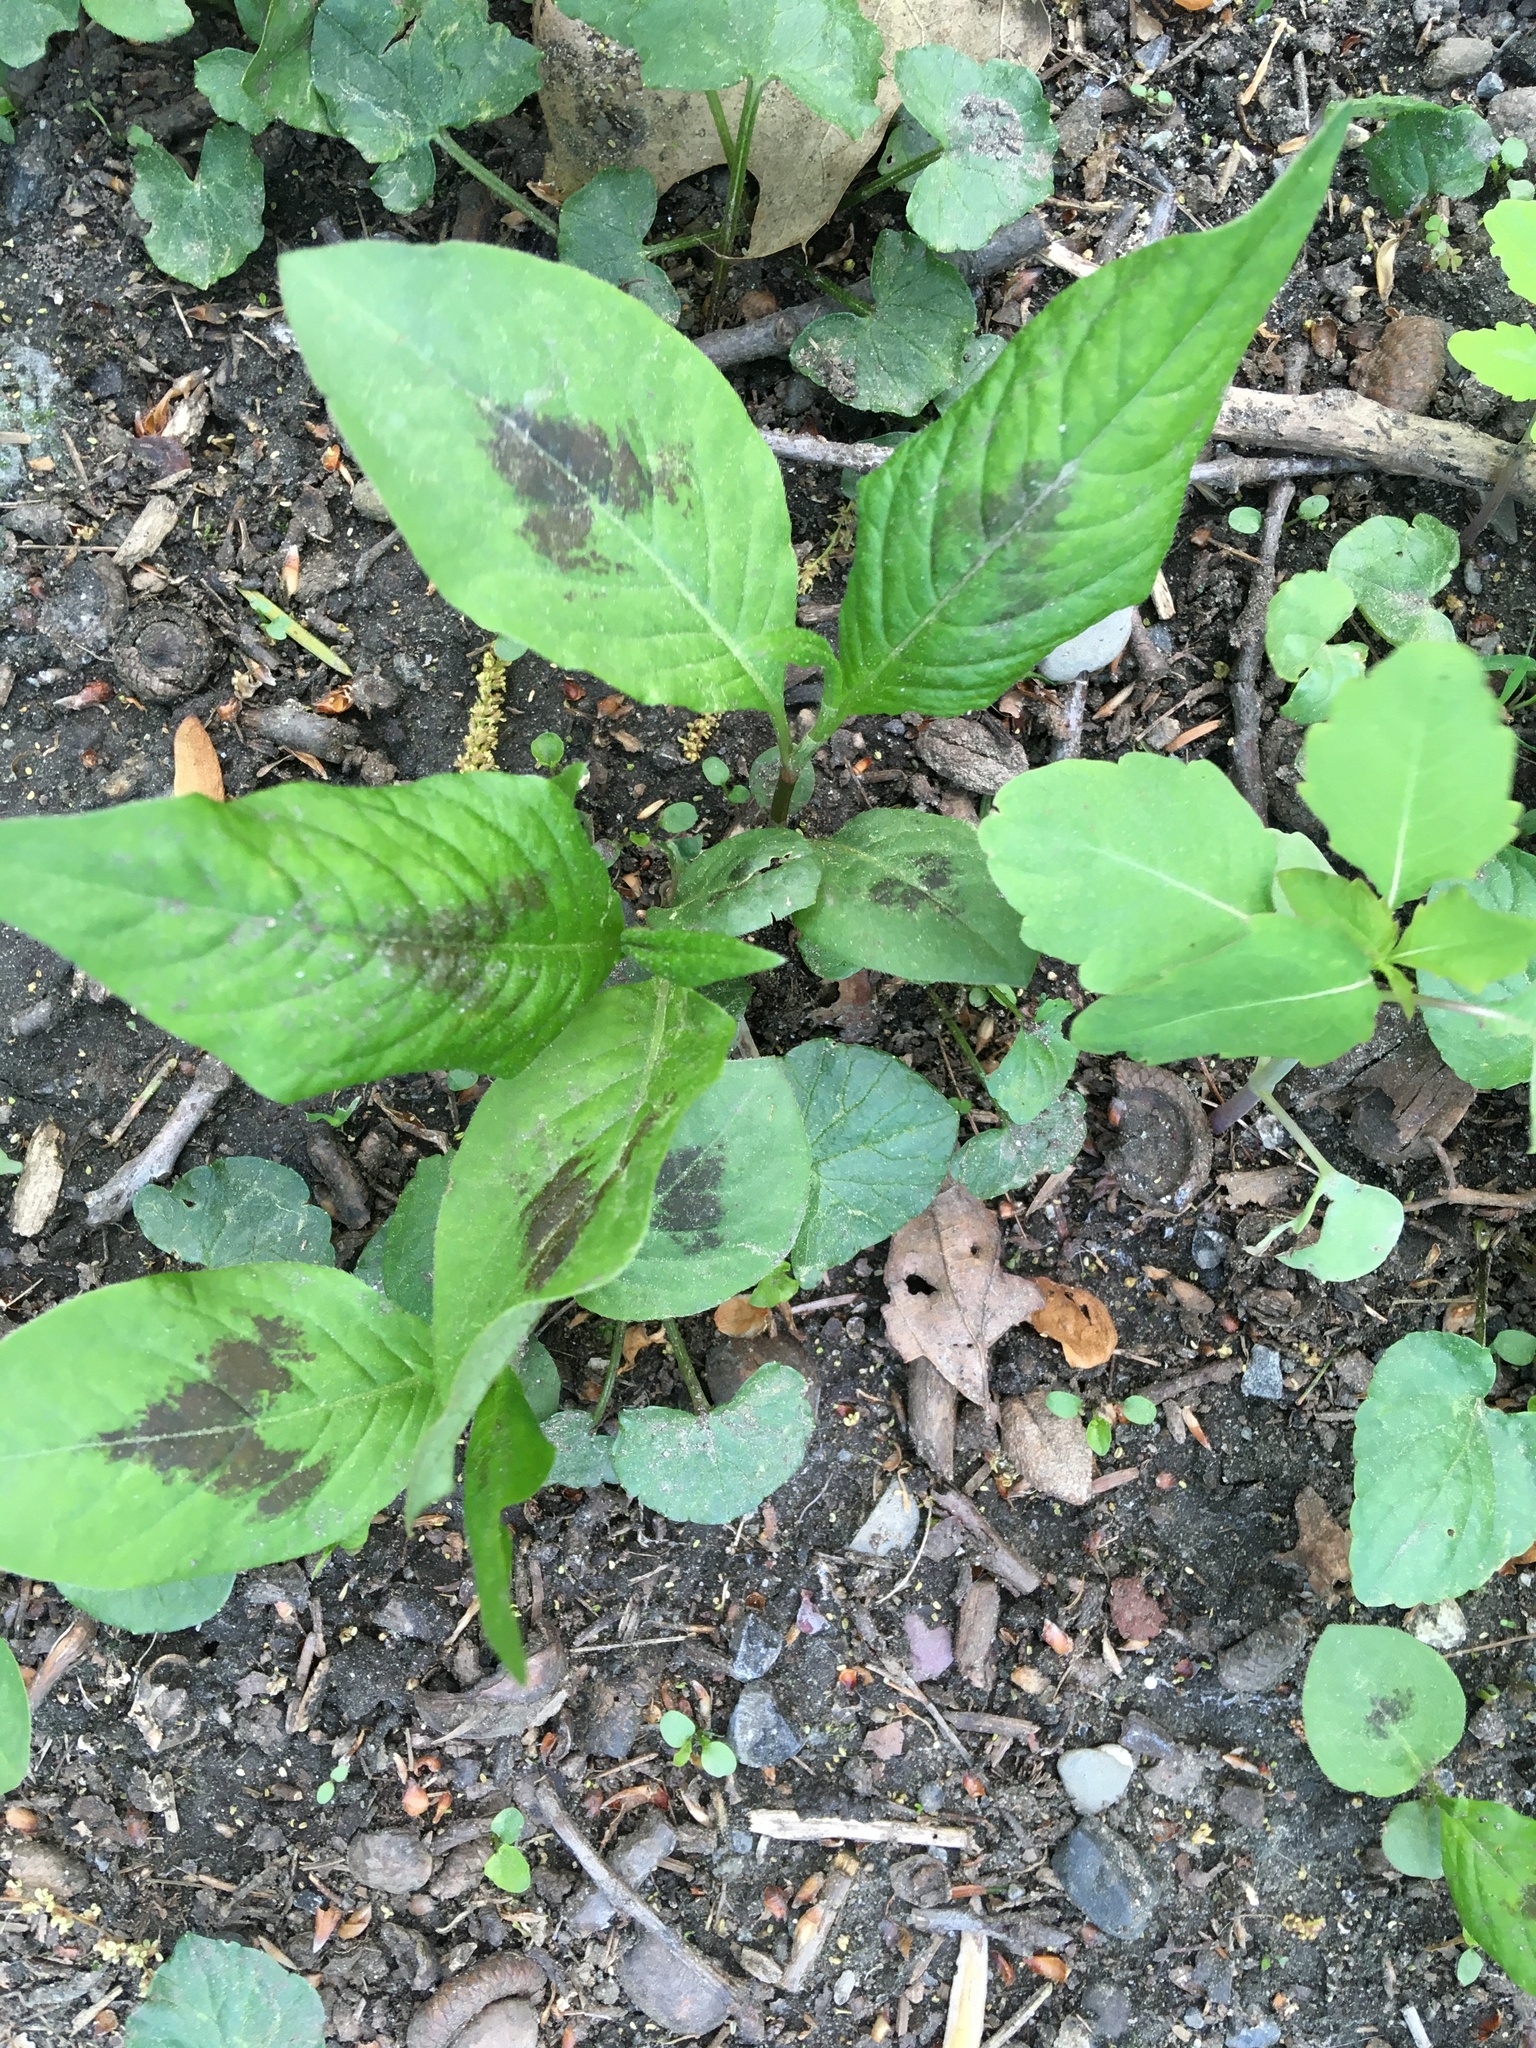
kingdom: Plantae
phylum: Tracheophyta
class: Magnoliopsida
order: Caryophyllales
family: Polygonaceae
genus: Persicaria
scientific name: Persicaria virginiana
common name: Jumpseed
